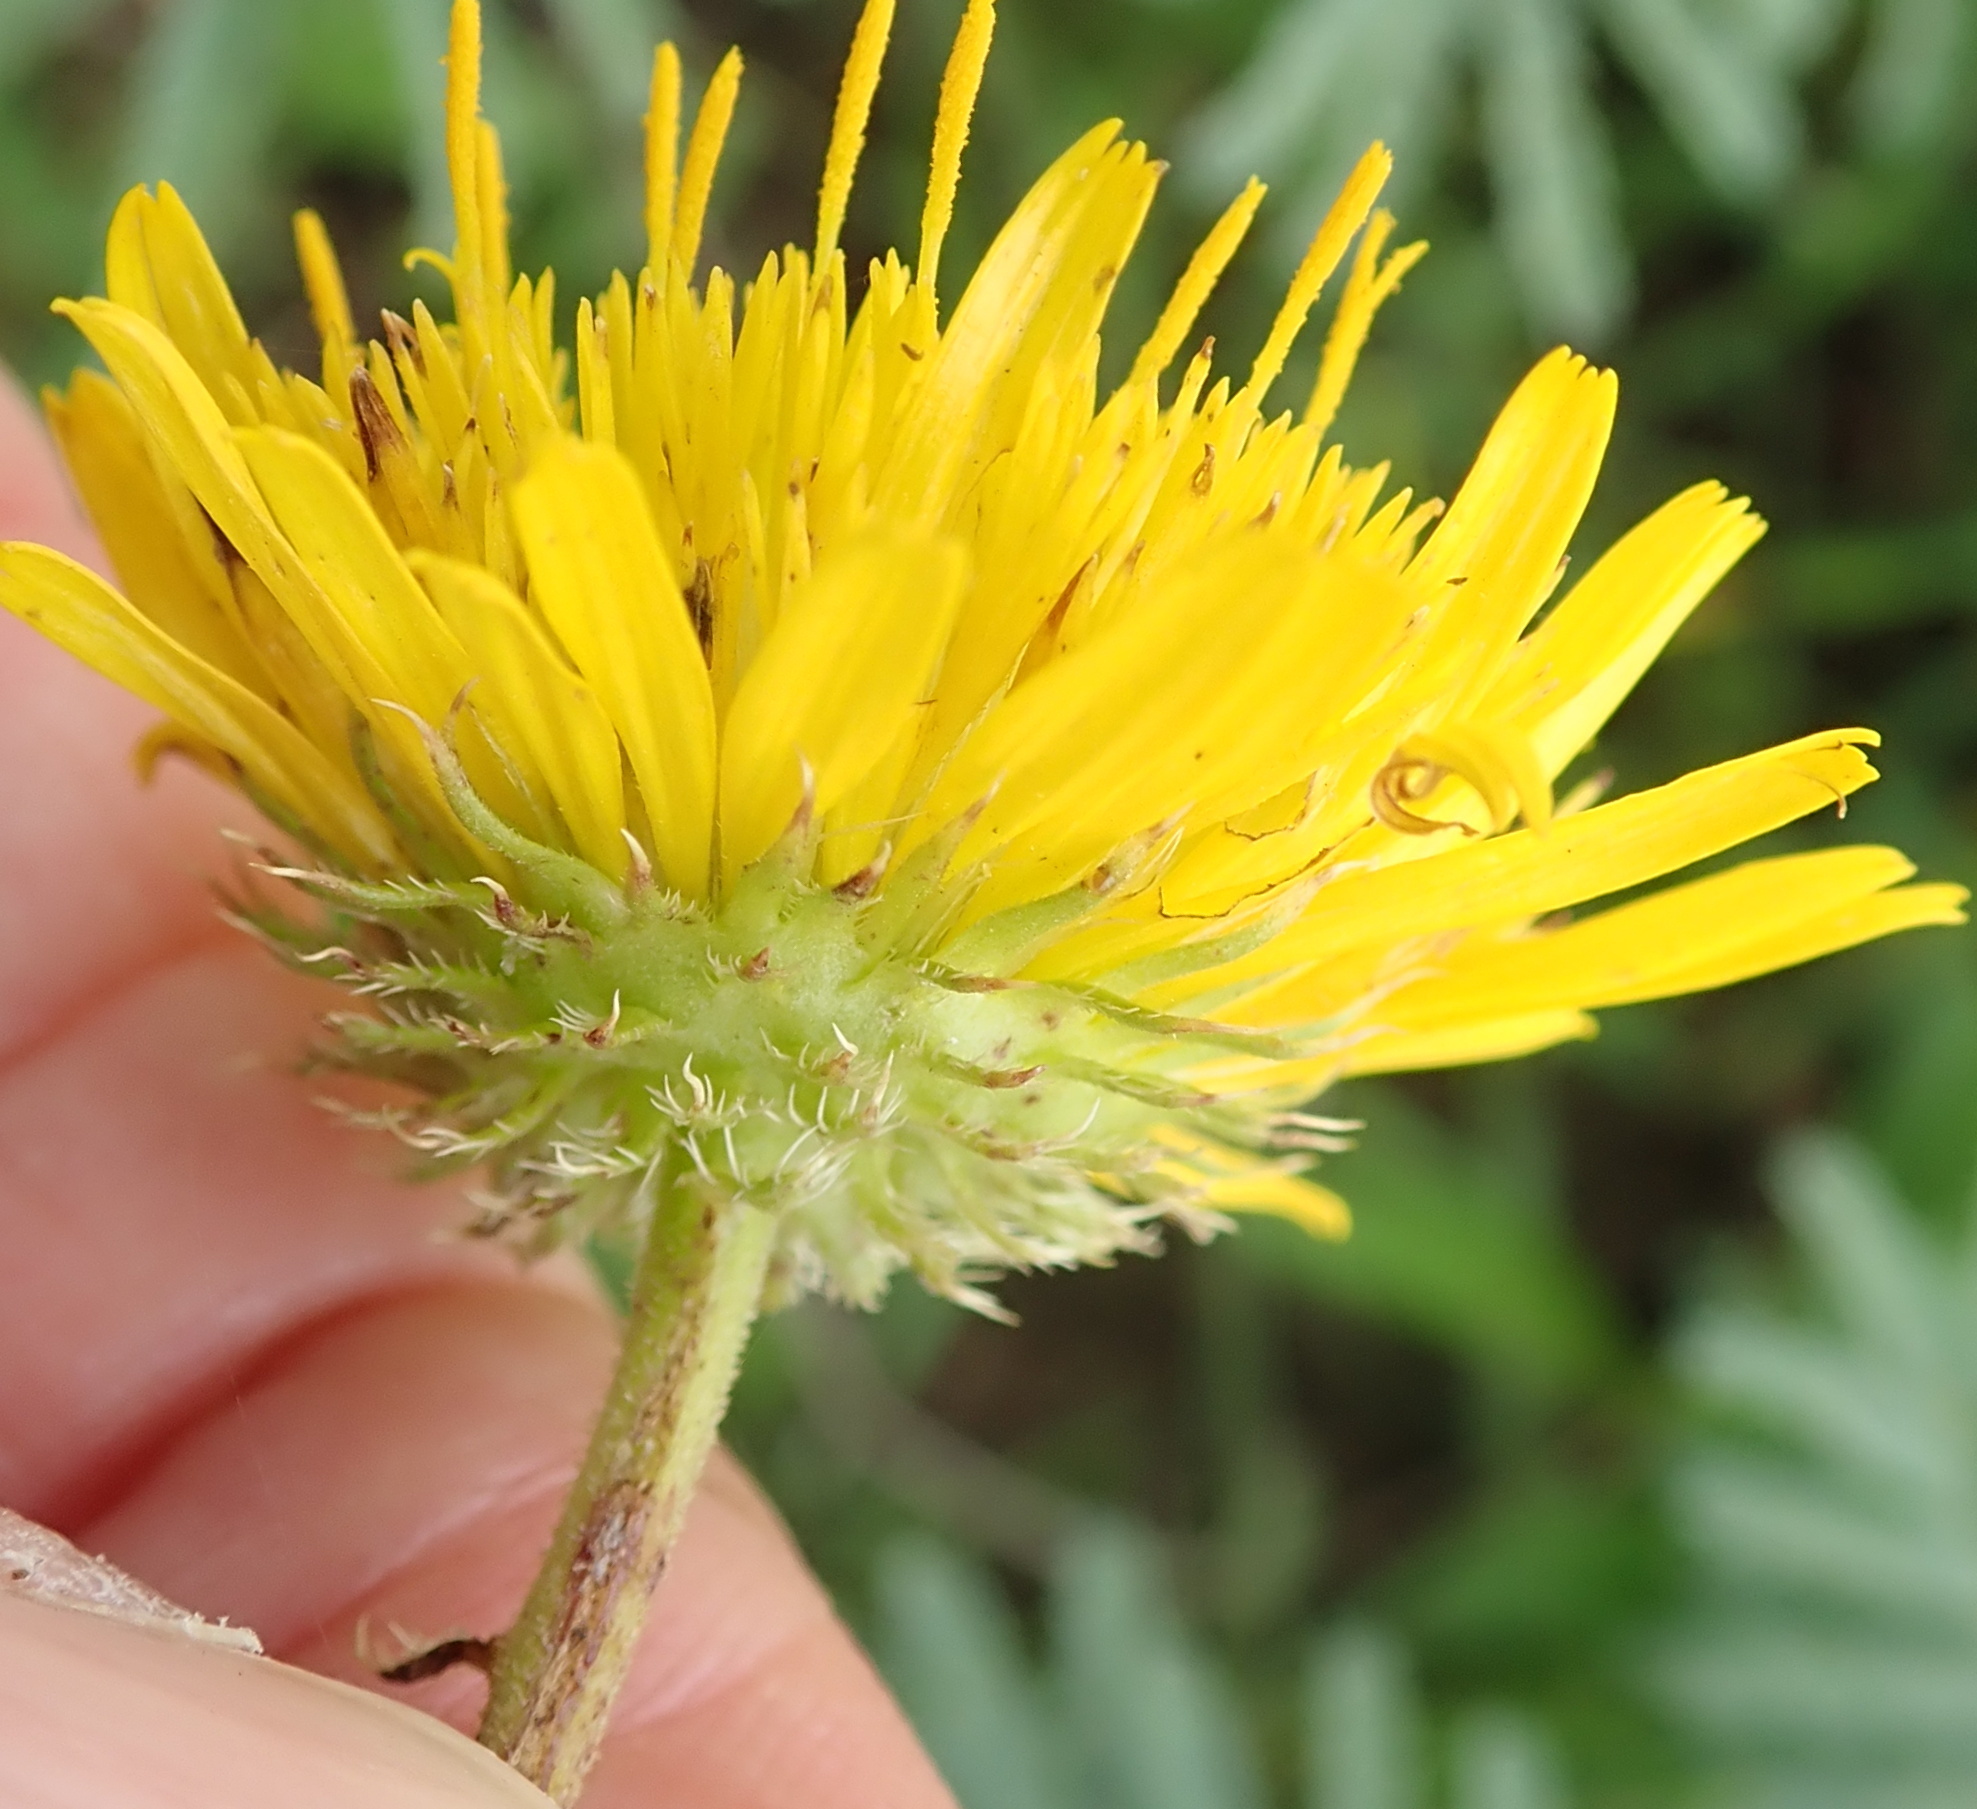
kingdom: Plantae
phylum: Tracheophyta
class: Magnoliopsida
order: Asterales
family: Asteraceae
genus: Berkheya
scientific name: Berkheya setifera
